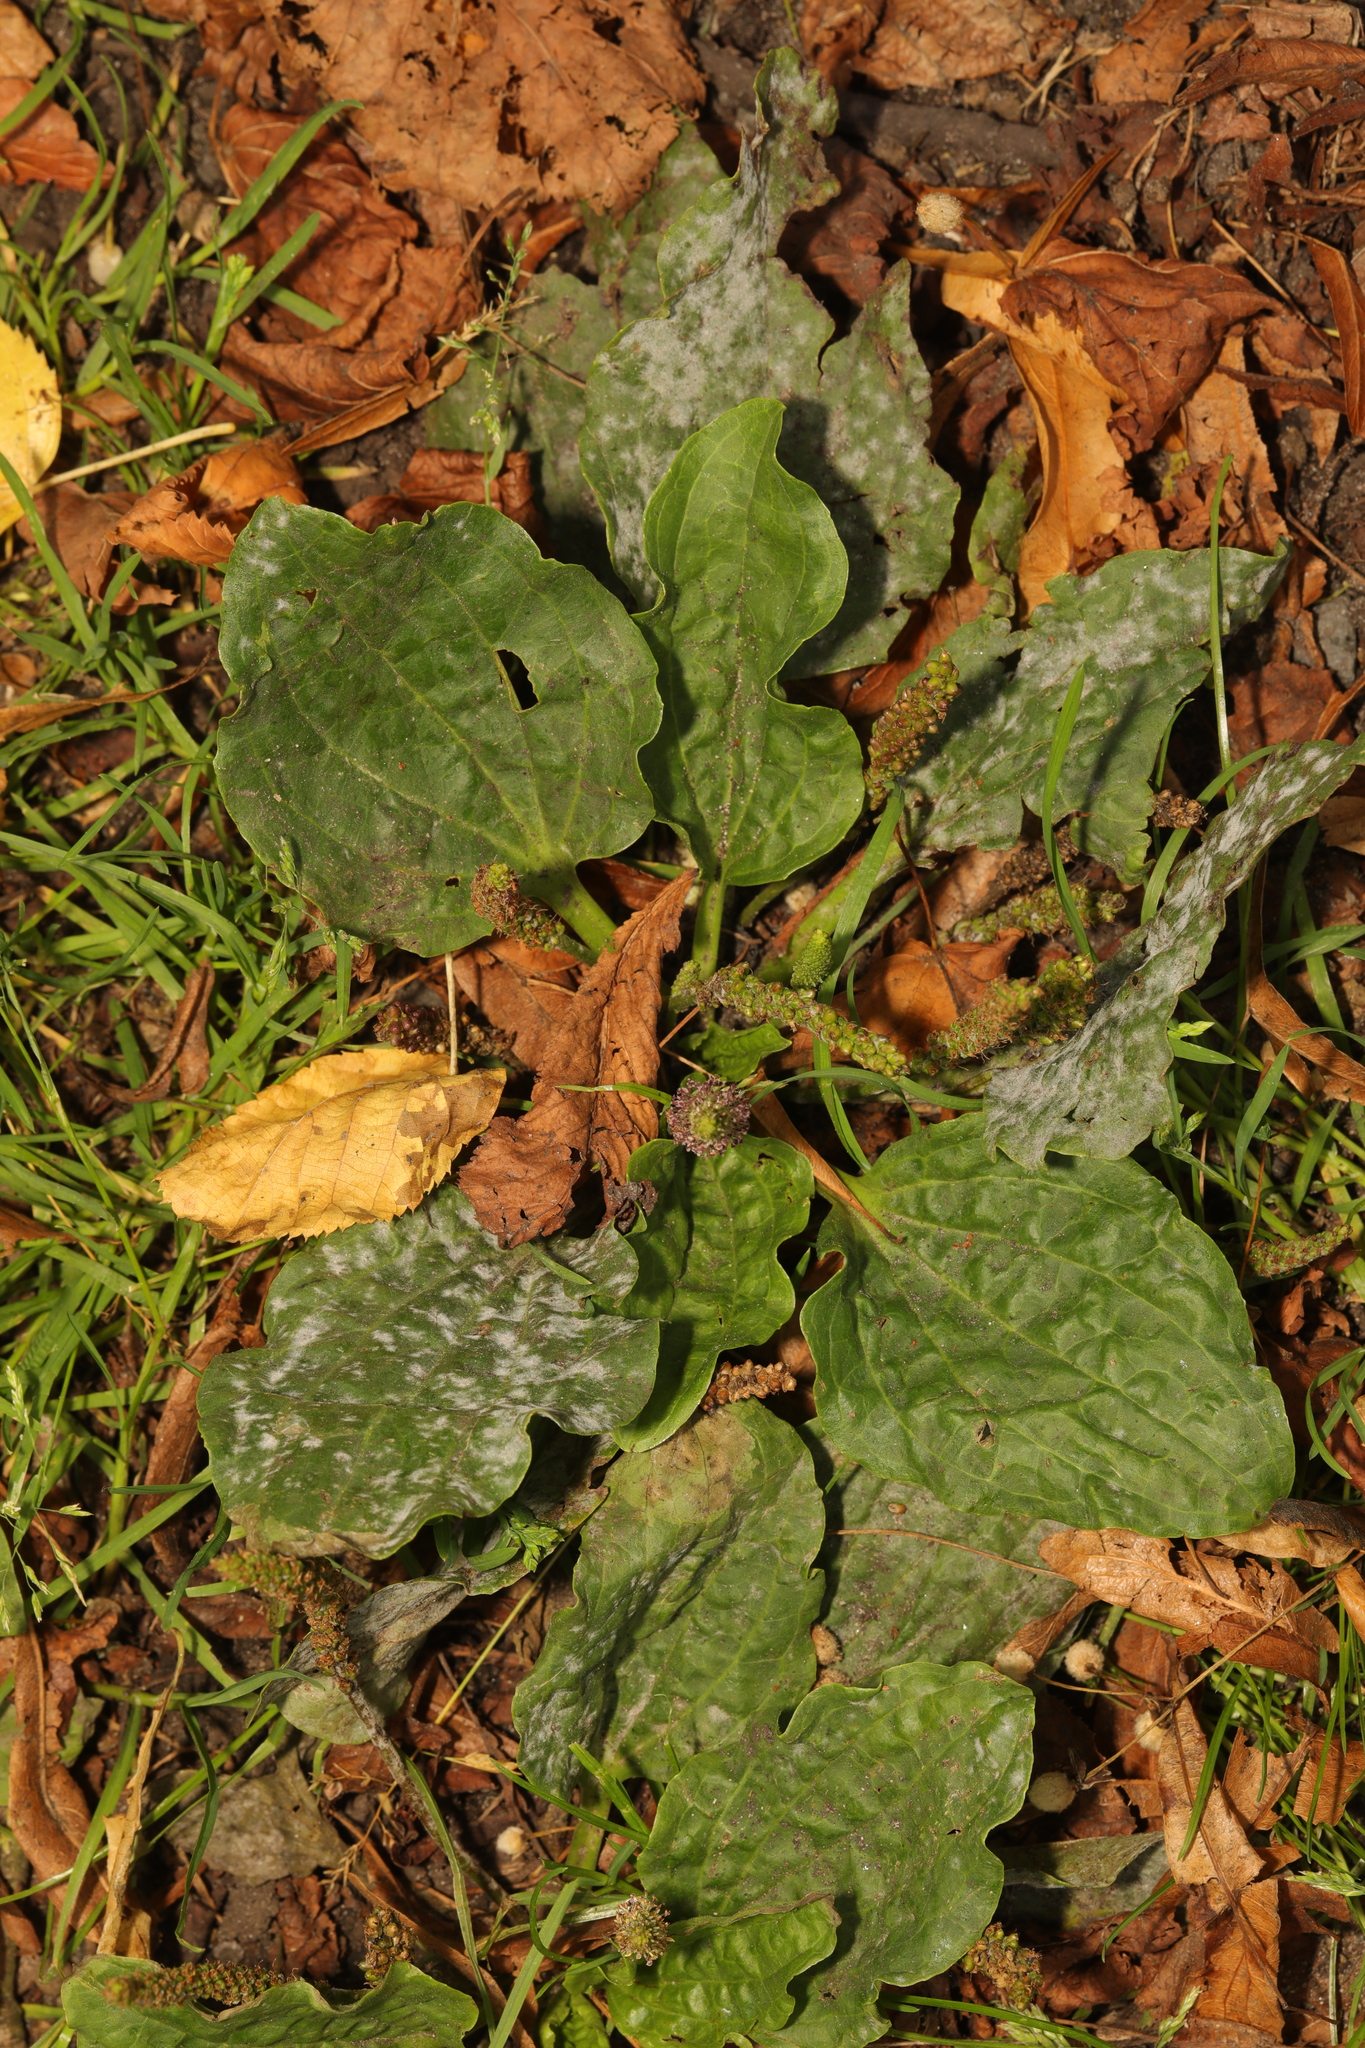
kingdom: Plantae
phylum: Tracheophyta
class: Magnoliopsida
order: Lamiales
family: Plantaginaceae
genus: Plantago
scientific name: Plantago major
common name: Common plantain
